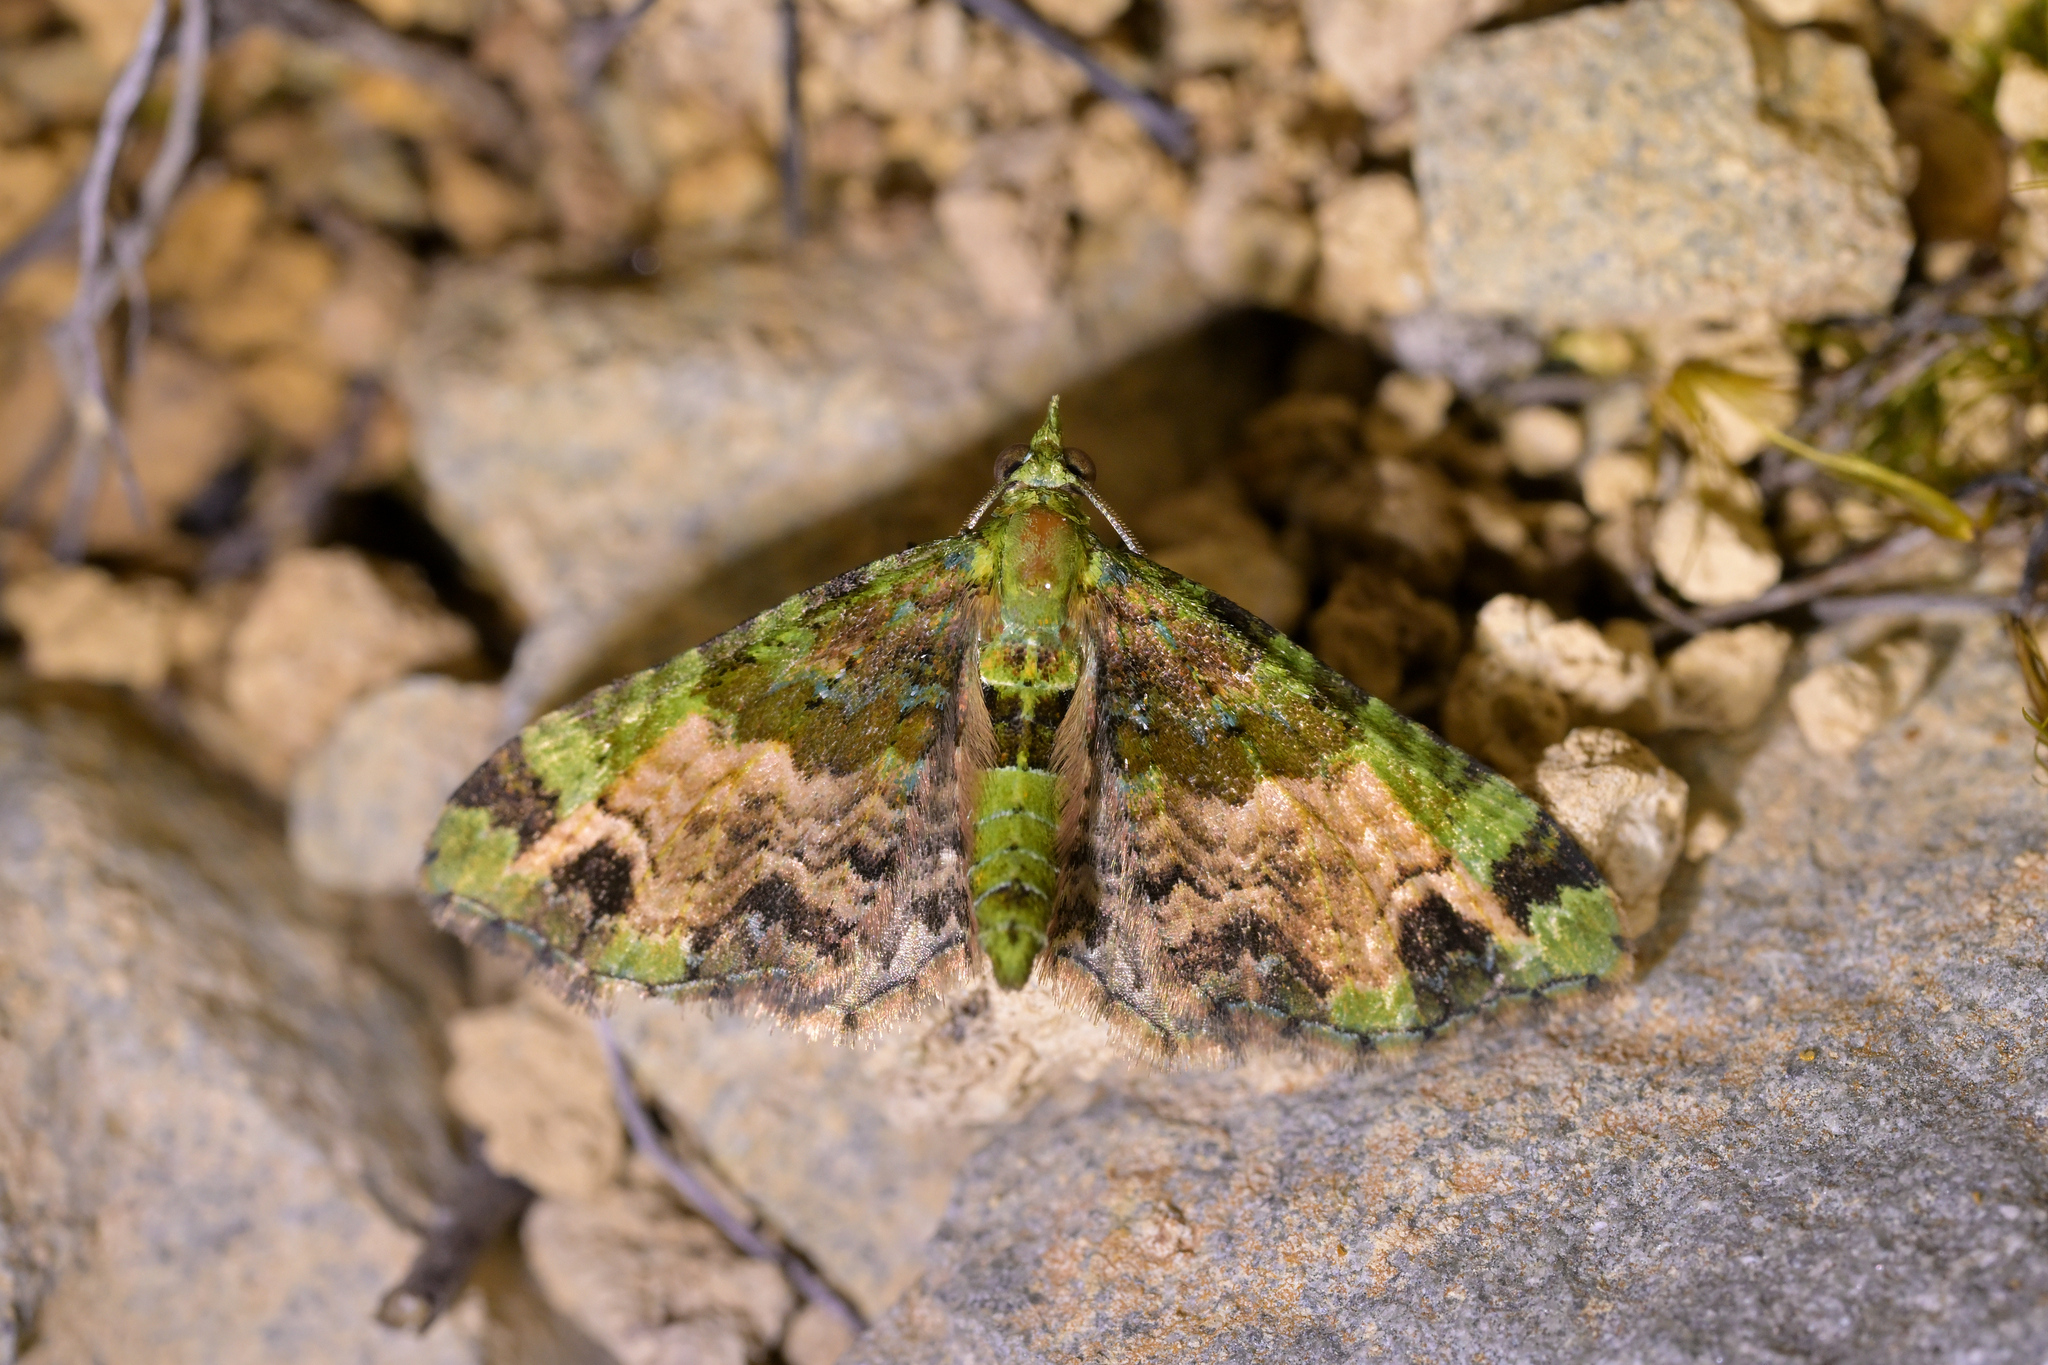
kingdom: Animalia
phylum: Arthropoda
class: Insecta
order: Lepidoptera
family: Geometridae
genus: Pasiphila
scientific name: Pasiphila malachita
